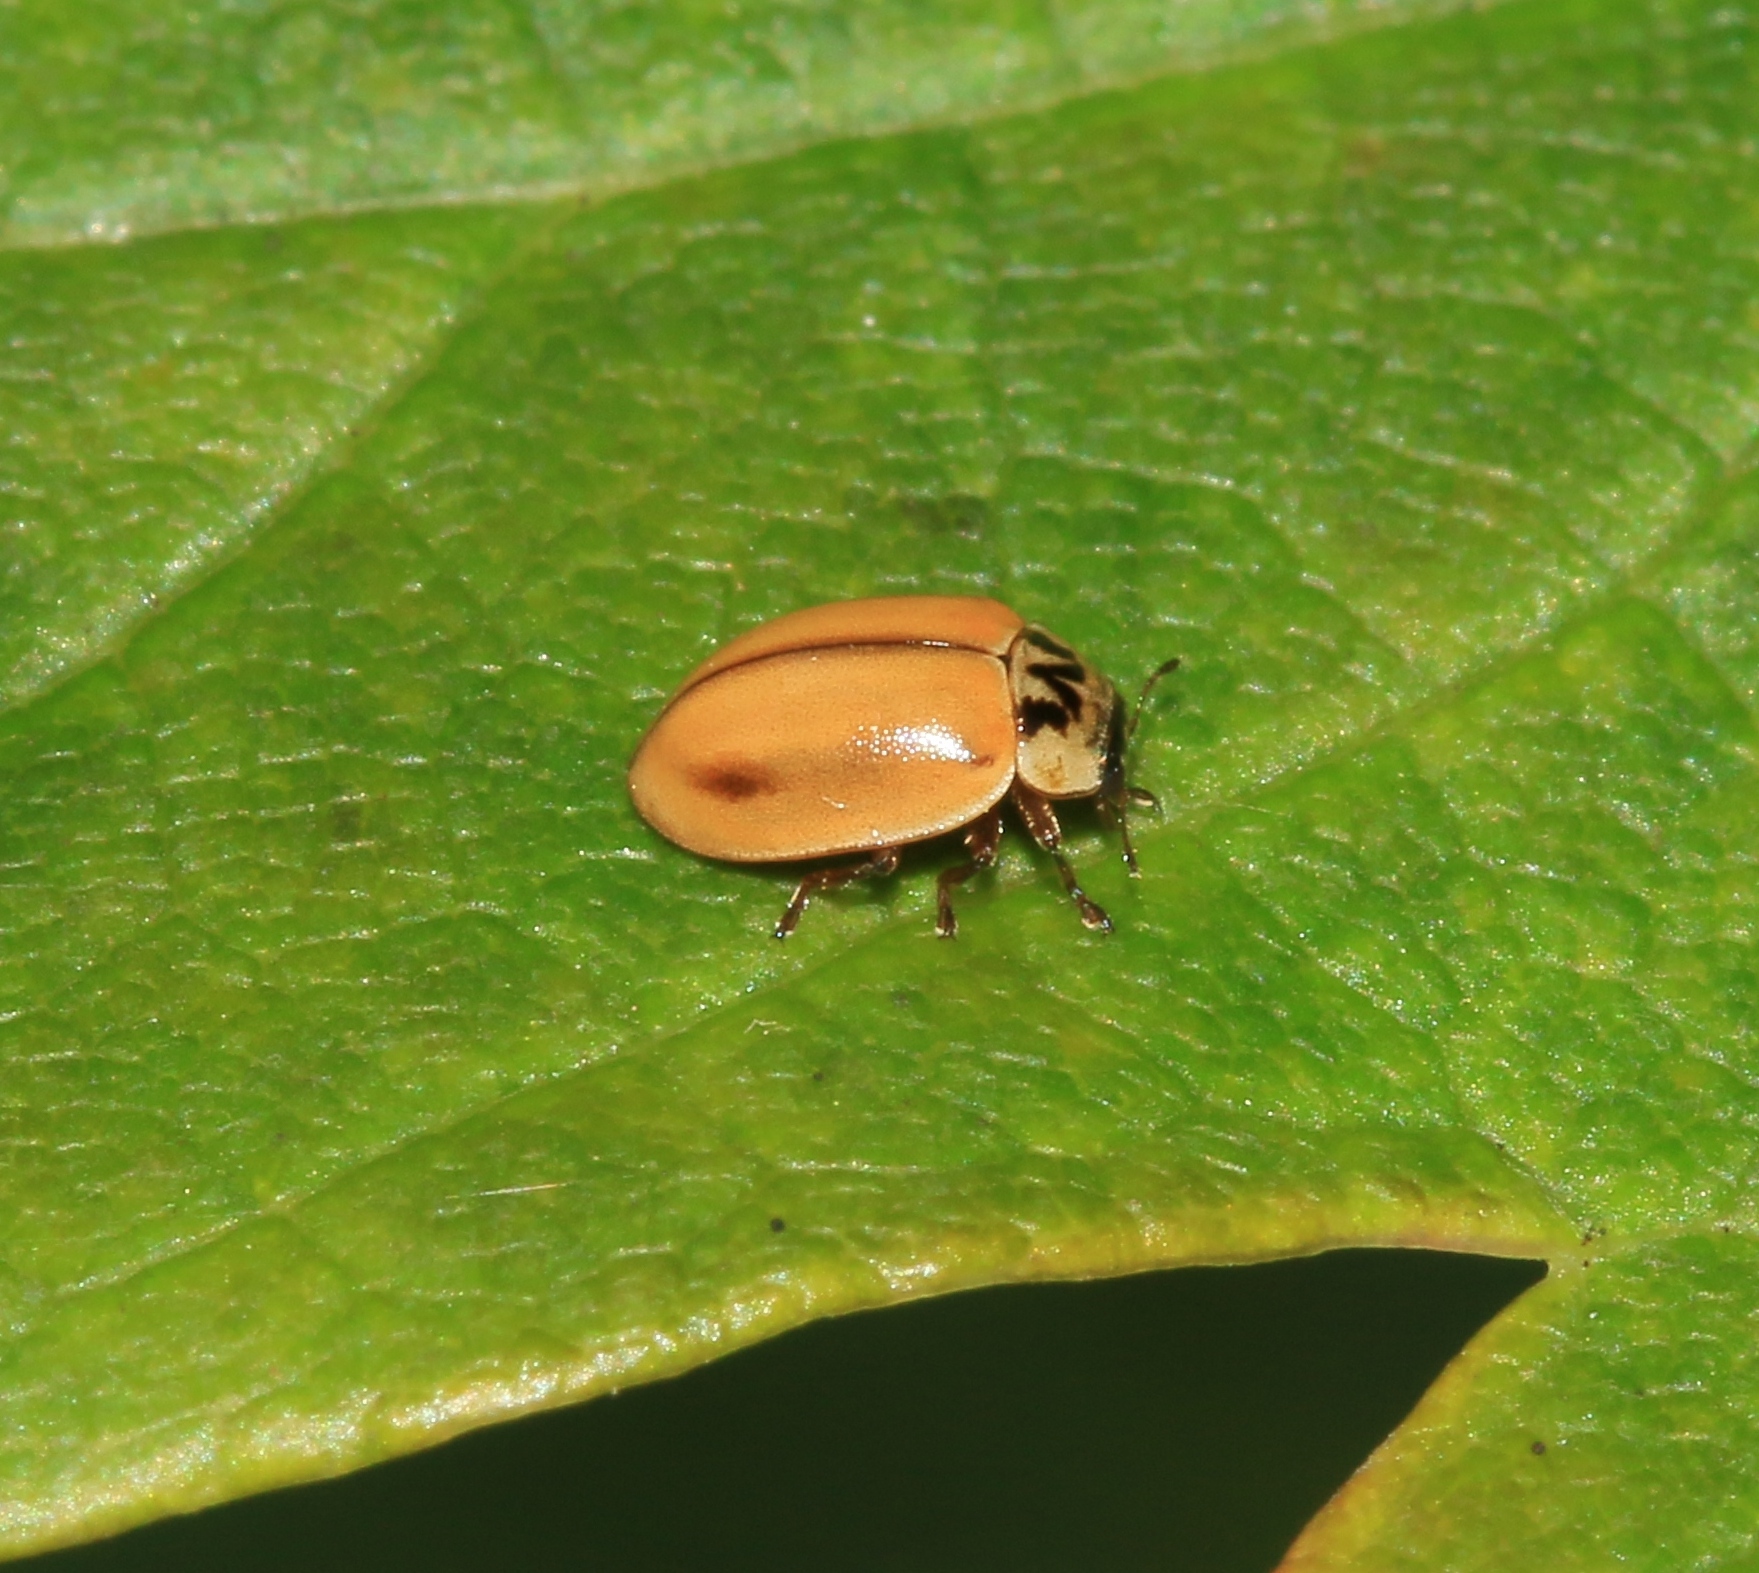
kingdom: Animalia
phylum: Arthropoda
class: Insecta
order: Coleoptera
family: Coccinellidae
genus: Aphidecta
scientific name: Aphidecta obliterata
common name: Larch ladybird
